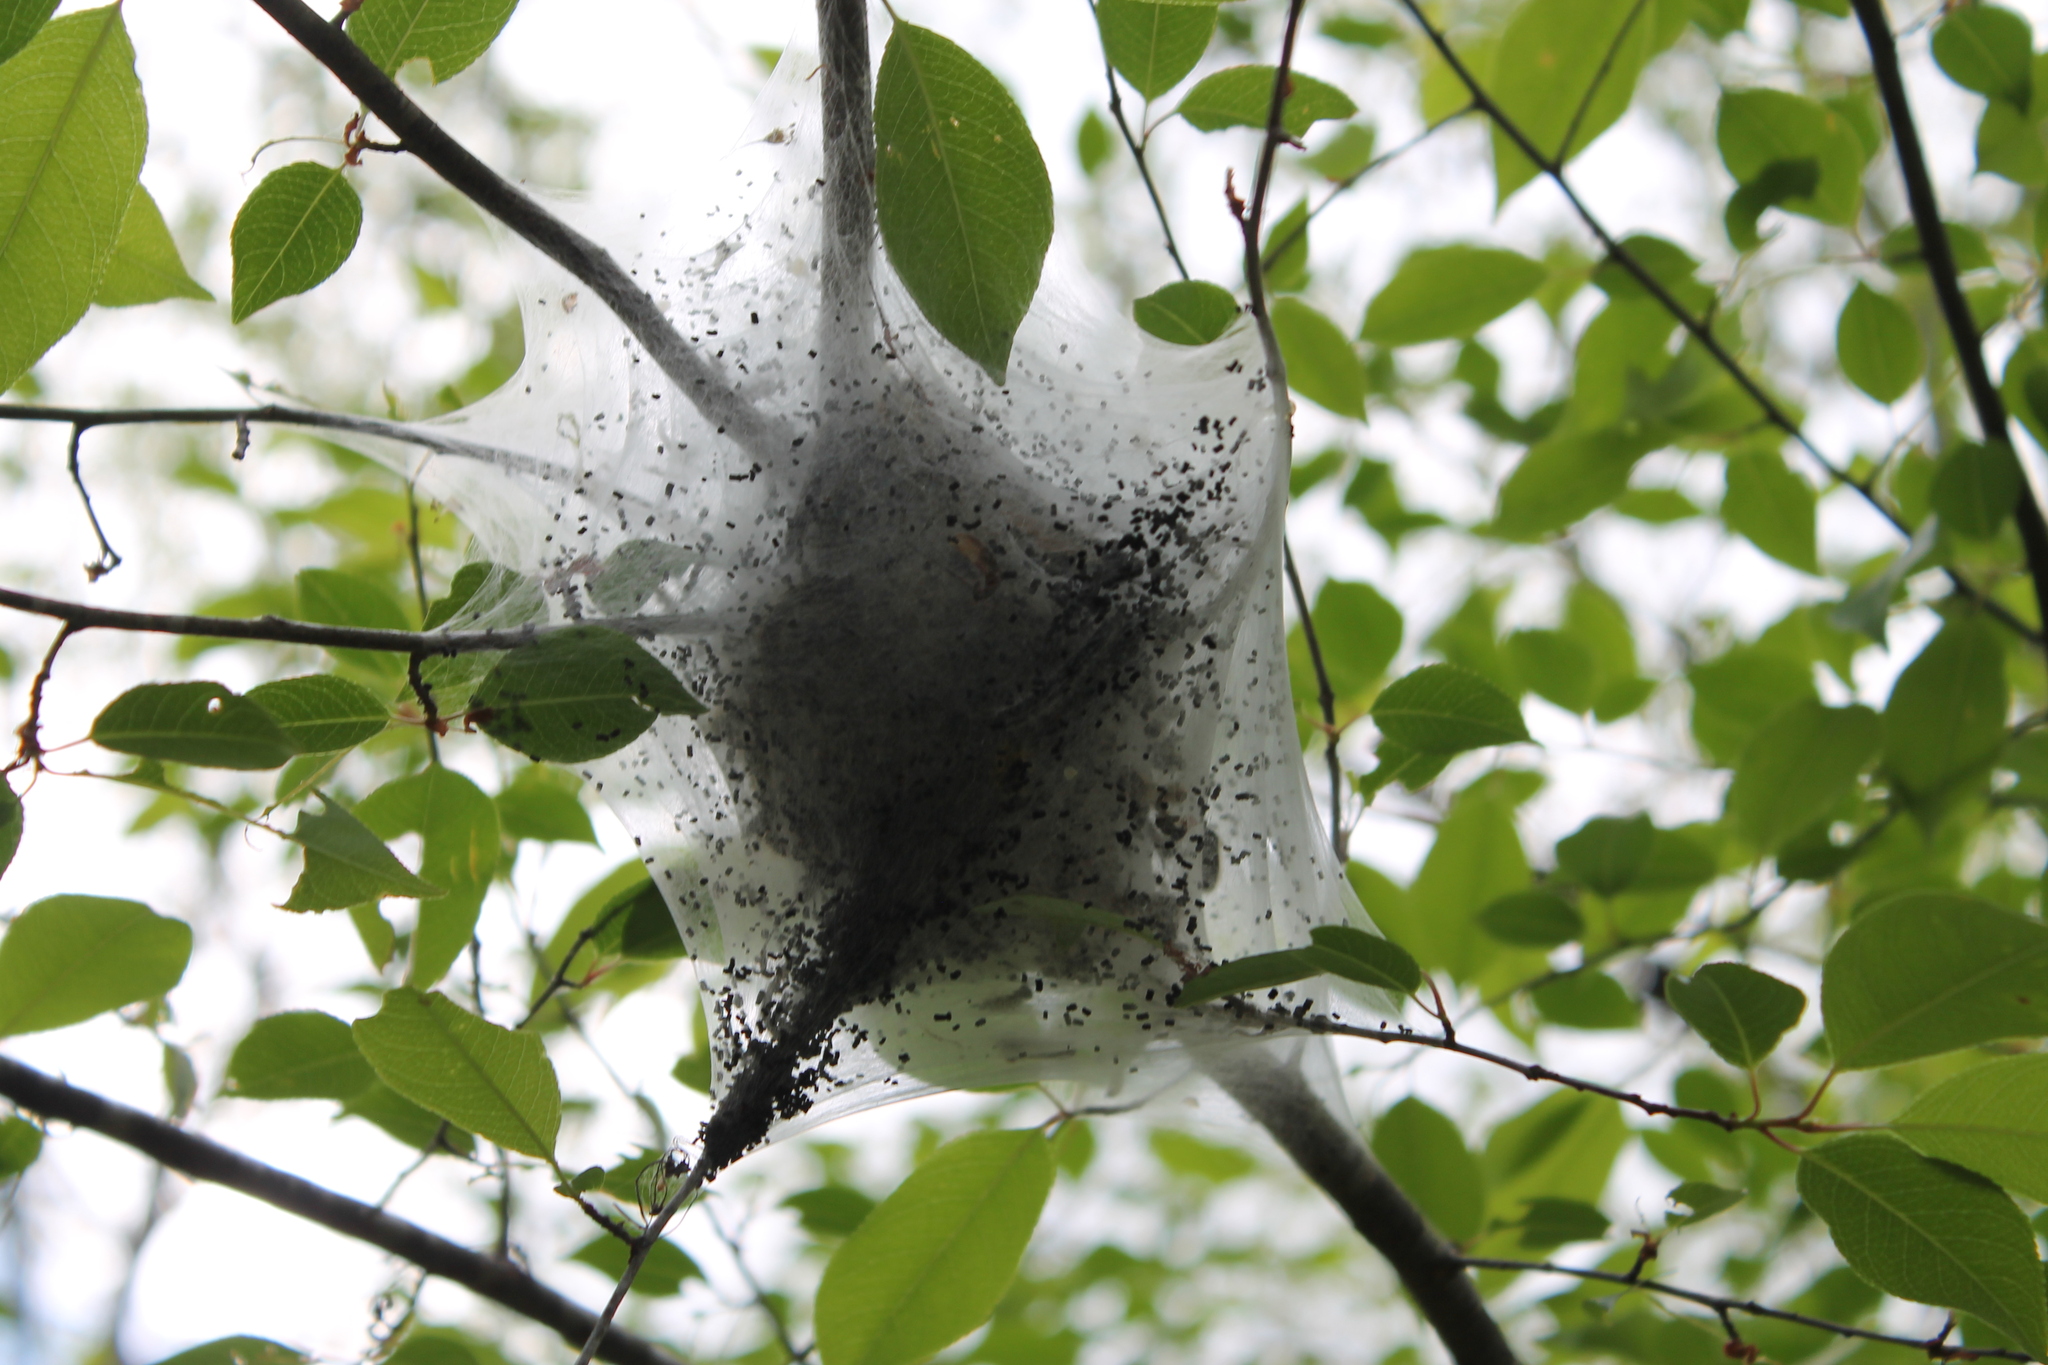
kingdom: Animalia
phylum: Arthropoda
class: Insecta
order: Lepidoptera
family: Lasiocampidae
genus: Malacosoma
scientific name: Malacosoma americana
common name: Eastern tent caterpillar moth
